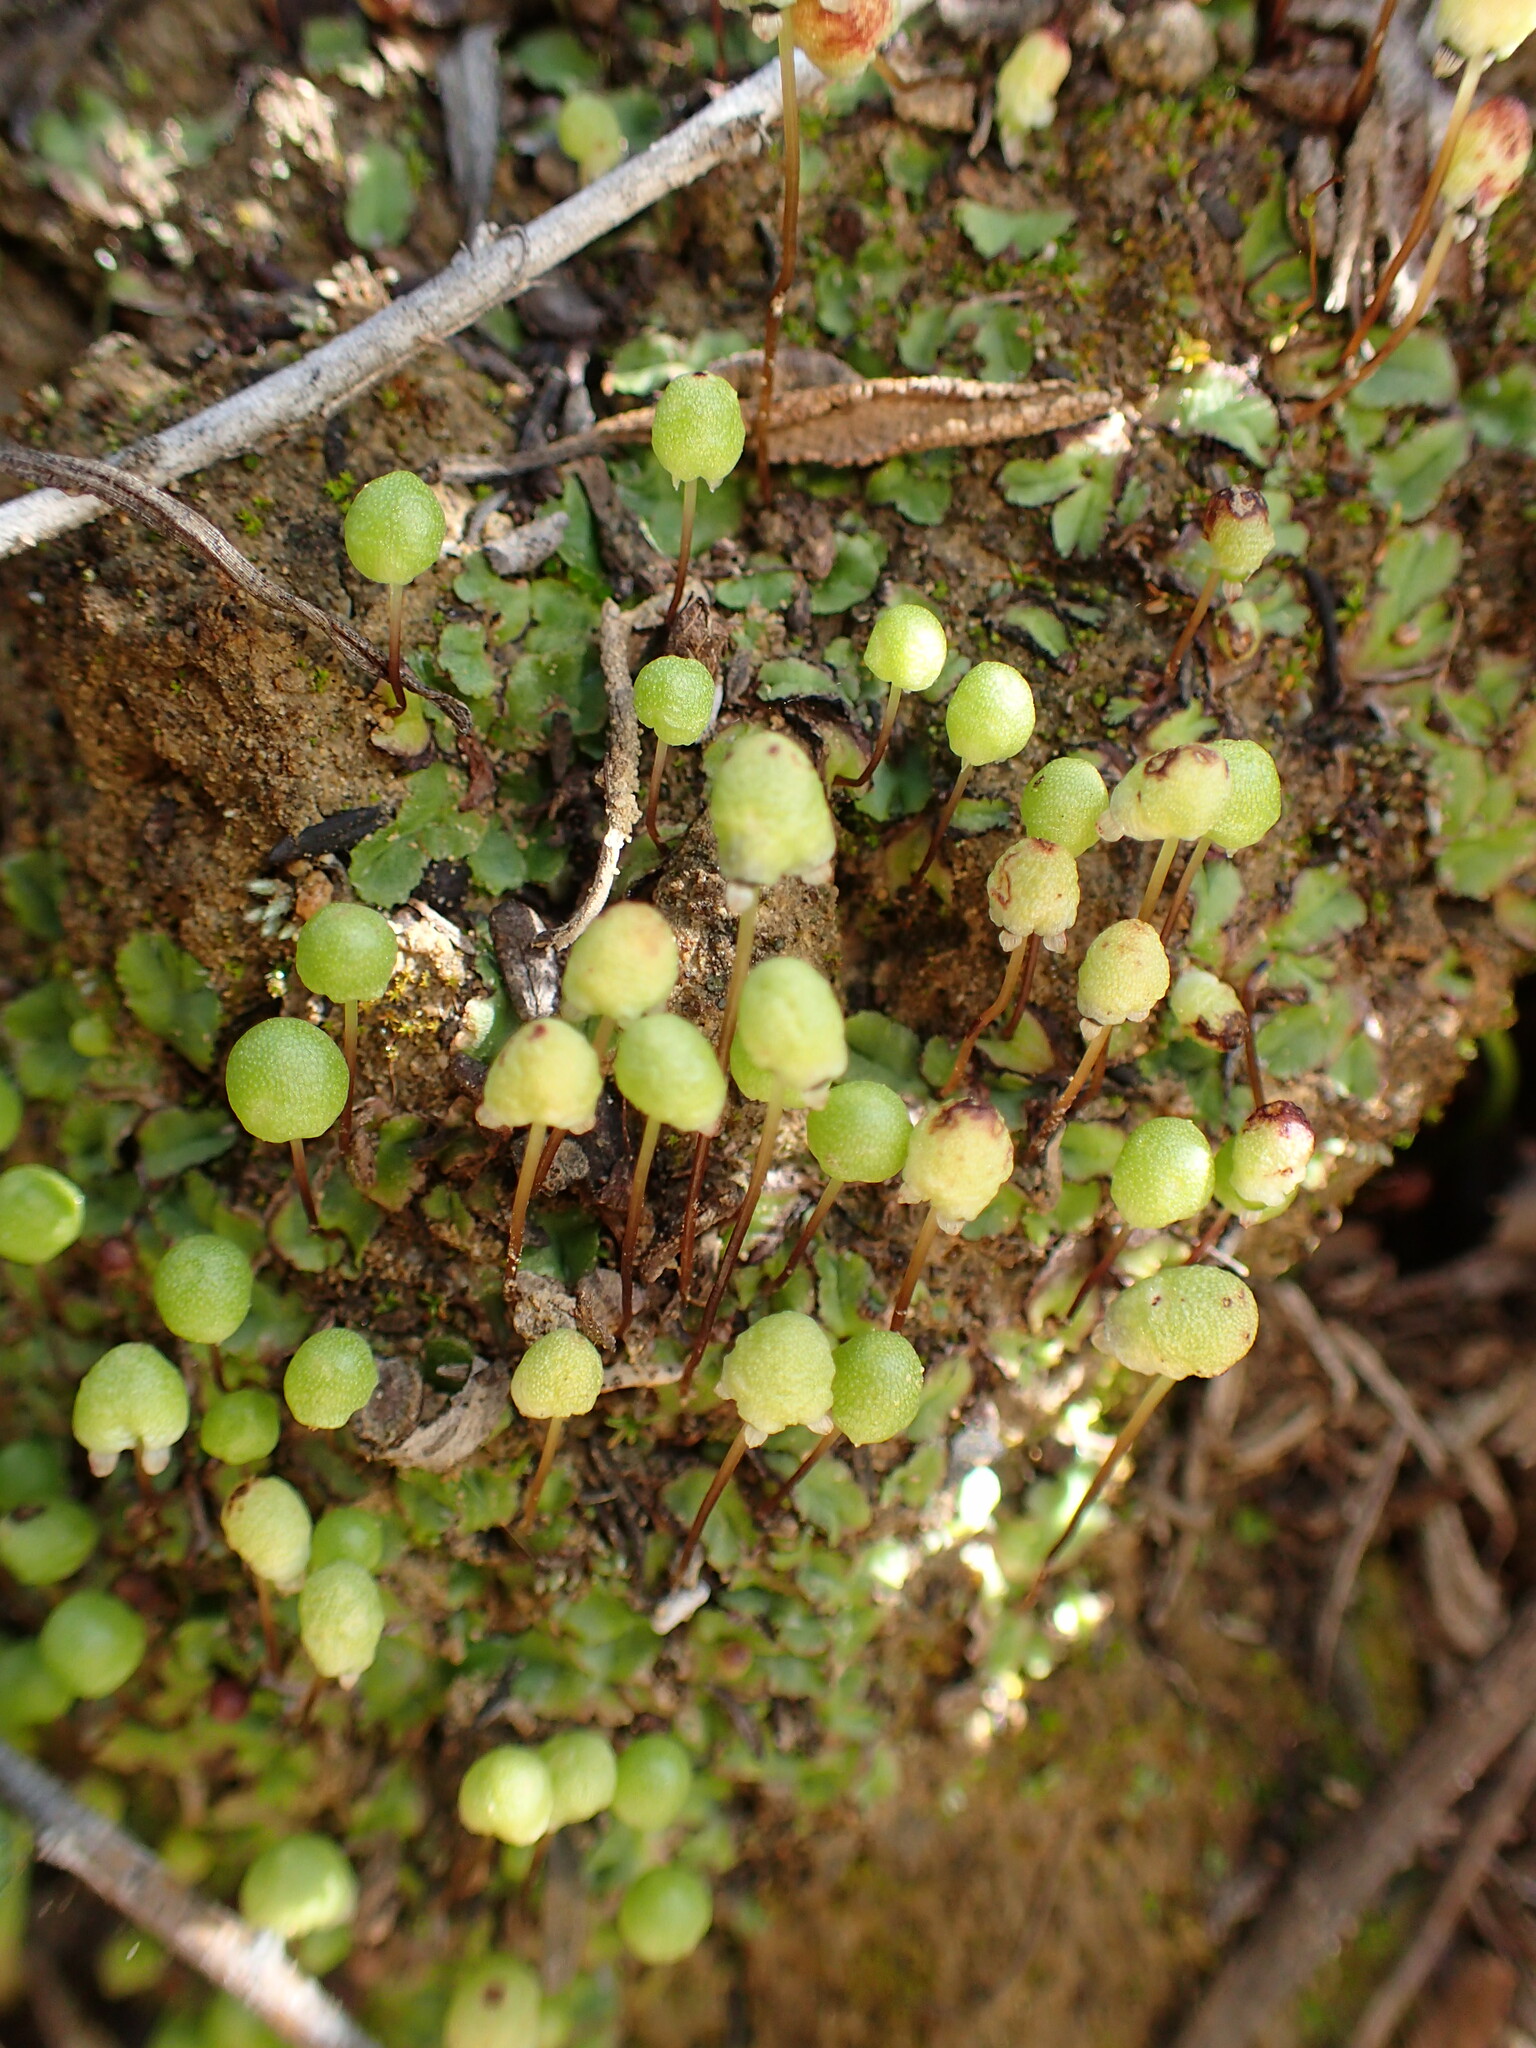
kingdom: Plantae
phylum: Marchantiophyta
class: Marchantiopsida
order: Marchantiales
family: Aytoniaceae
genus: Asterella
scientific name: Asterella palmeri
